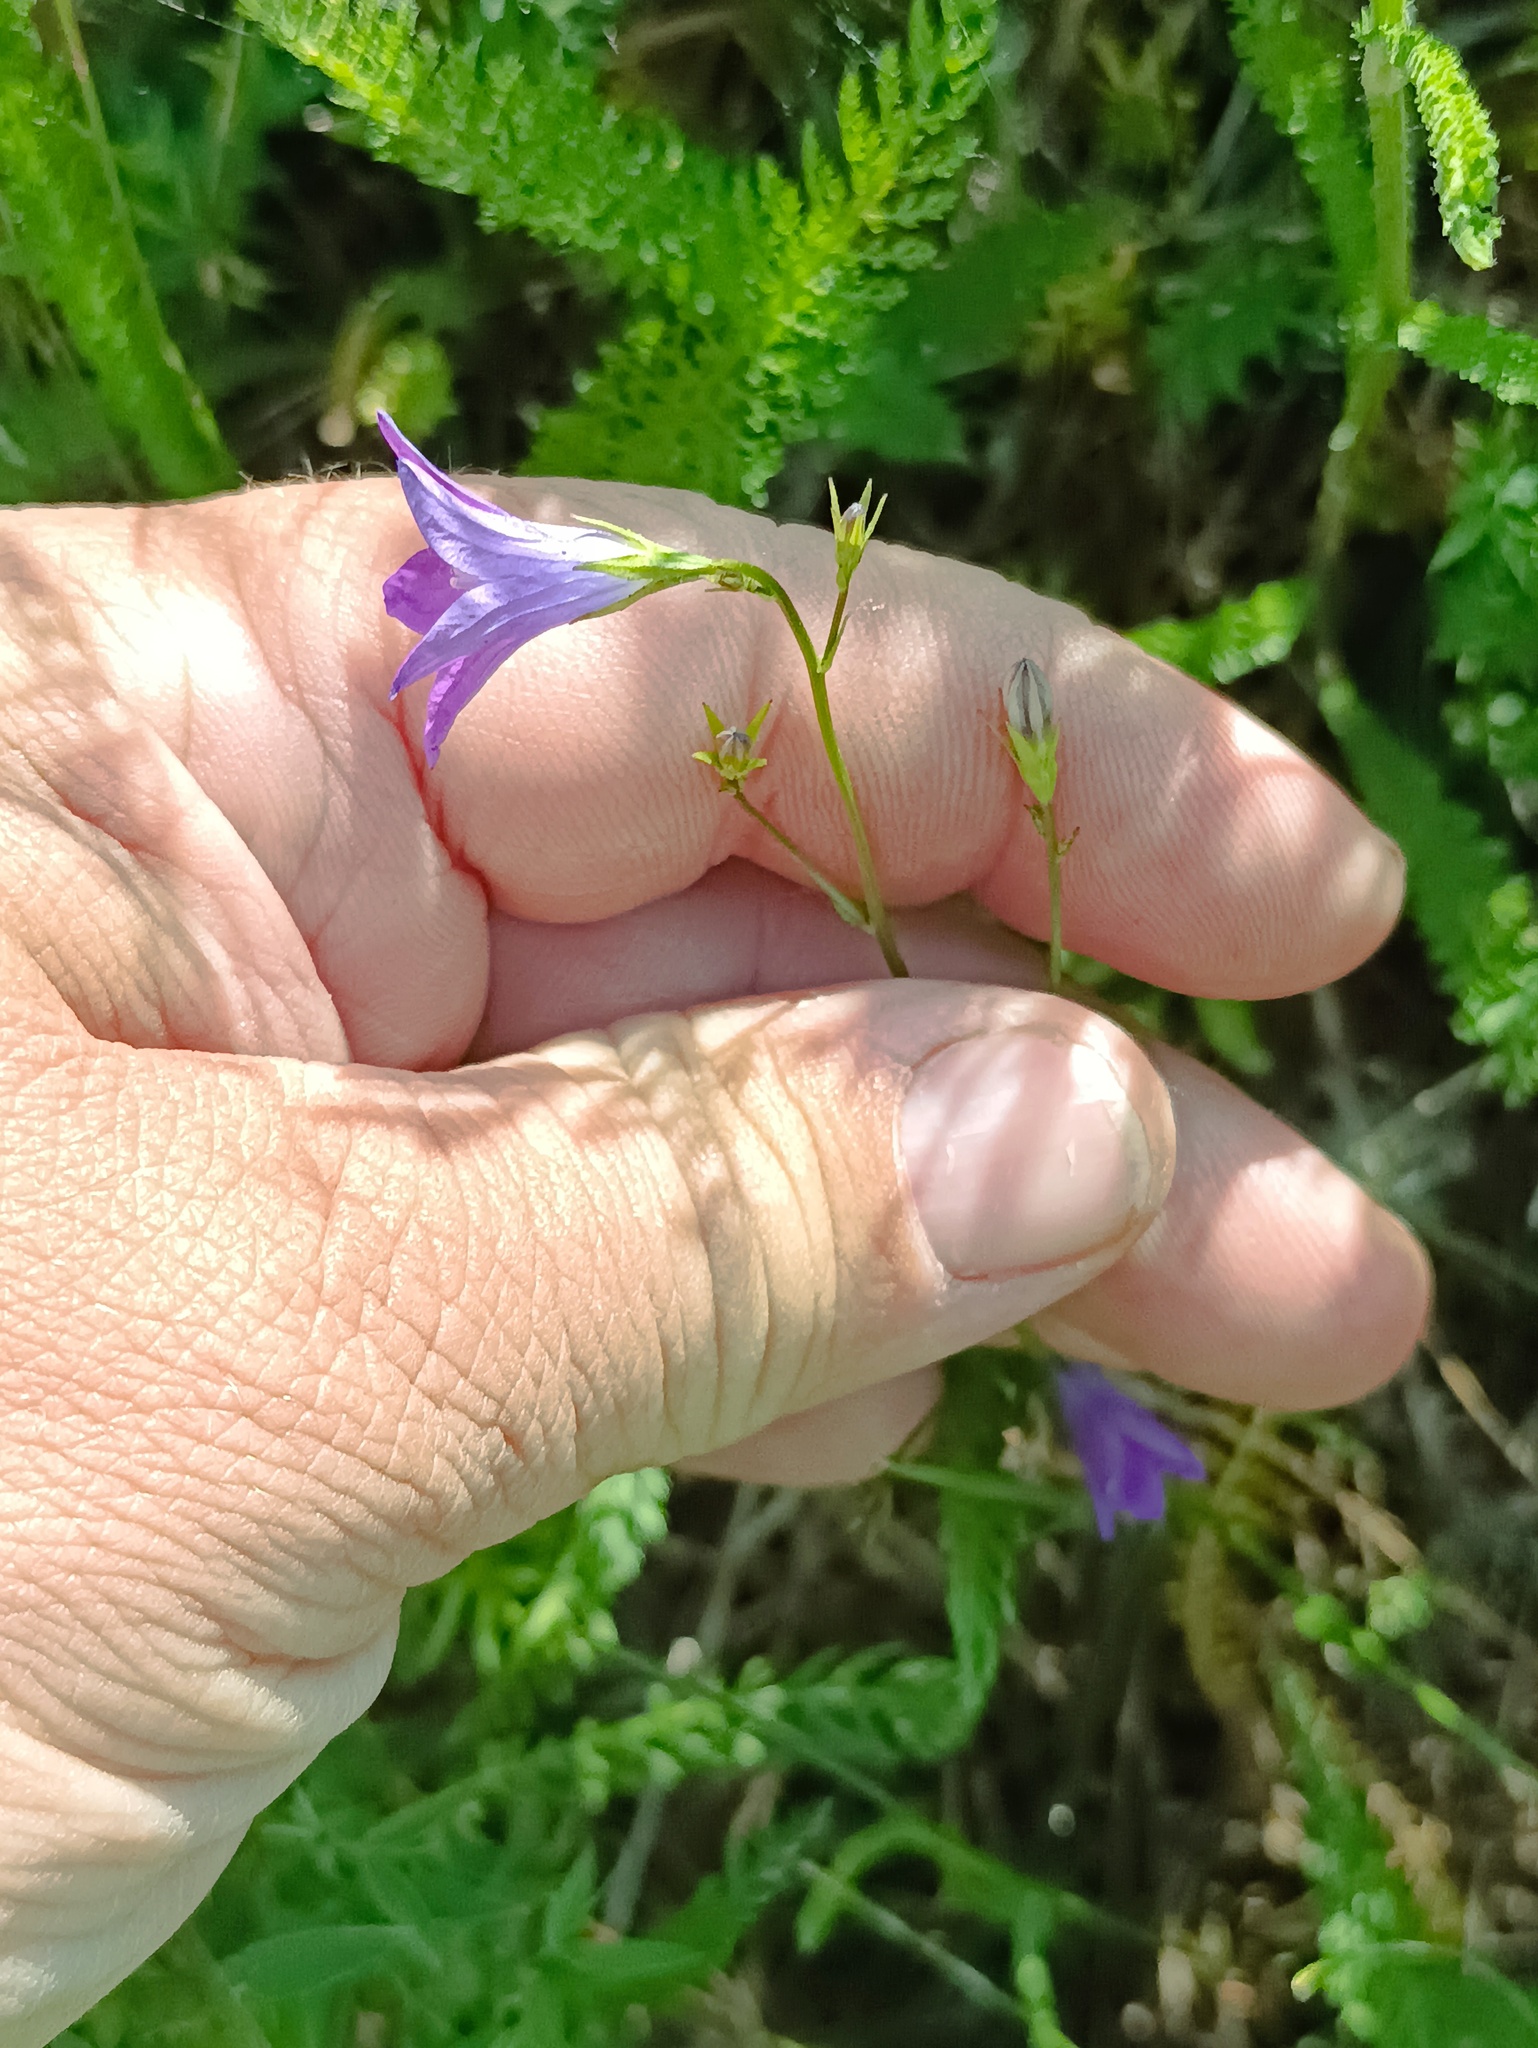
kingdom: Plantae
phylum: Tracheophyta
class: Magnoliopsida
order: Asterales
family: Campanulaceae
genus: Campanula
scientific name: Campanula patula
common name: Spreading bellflower
